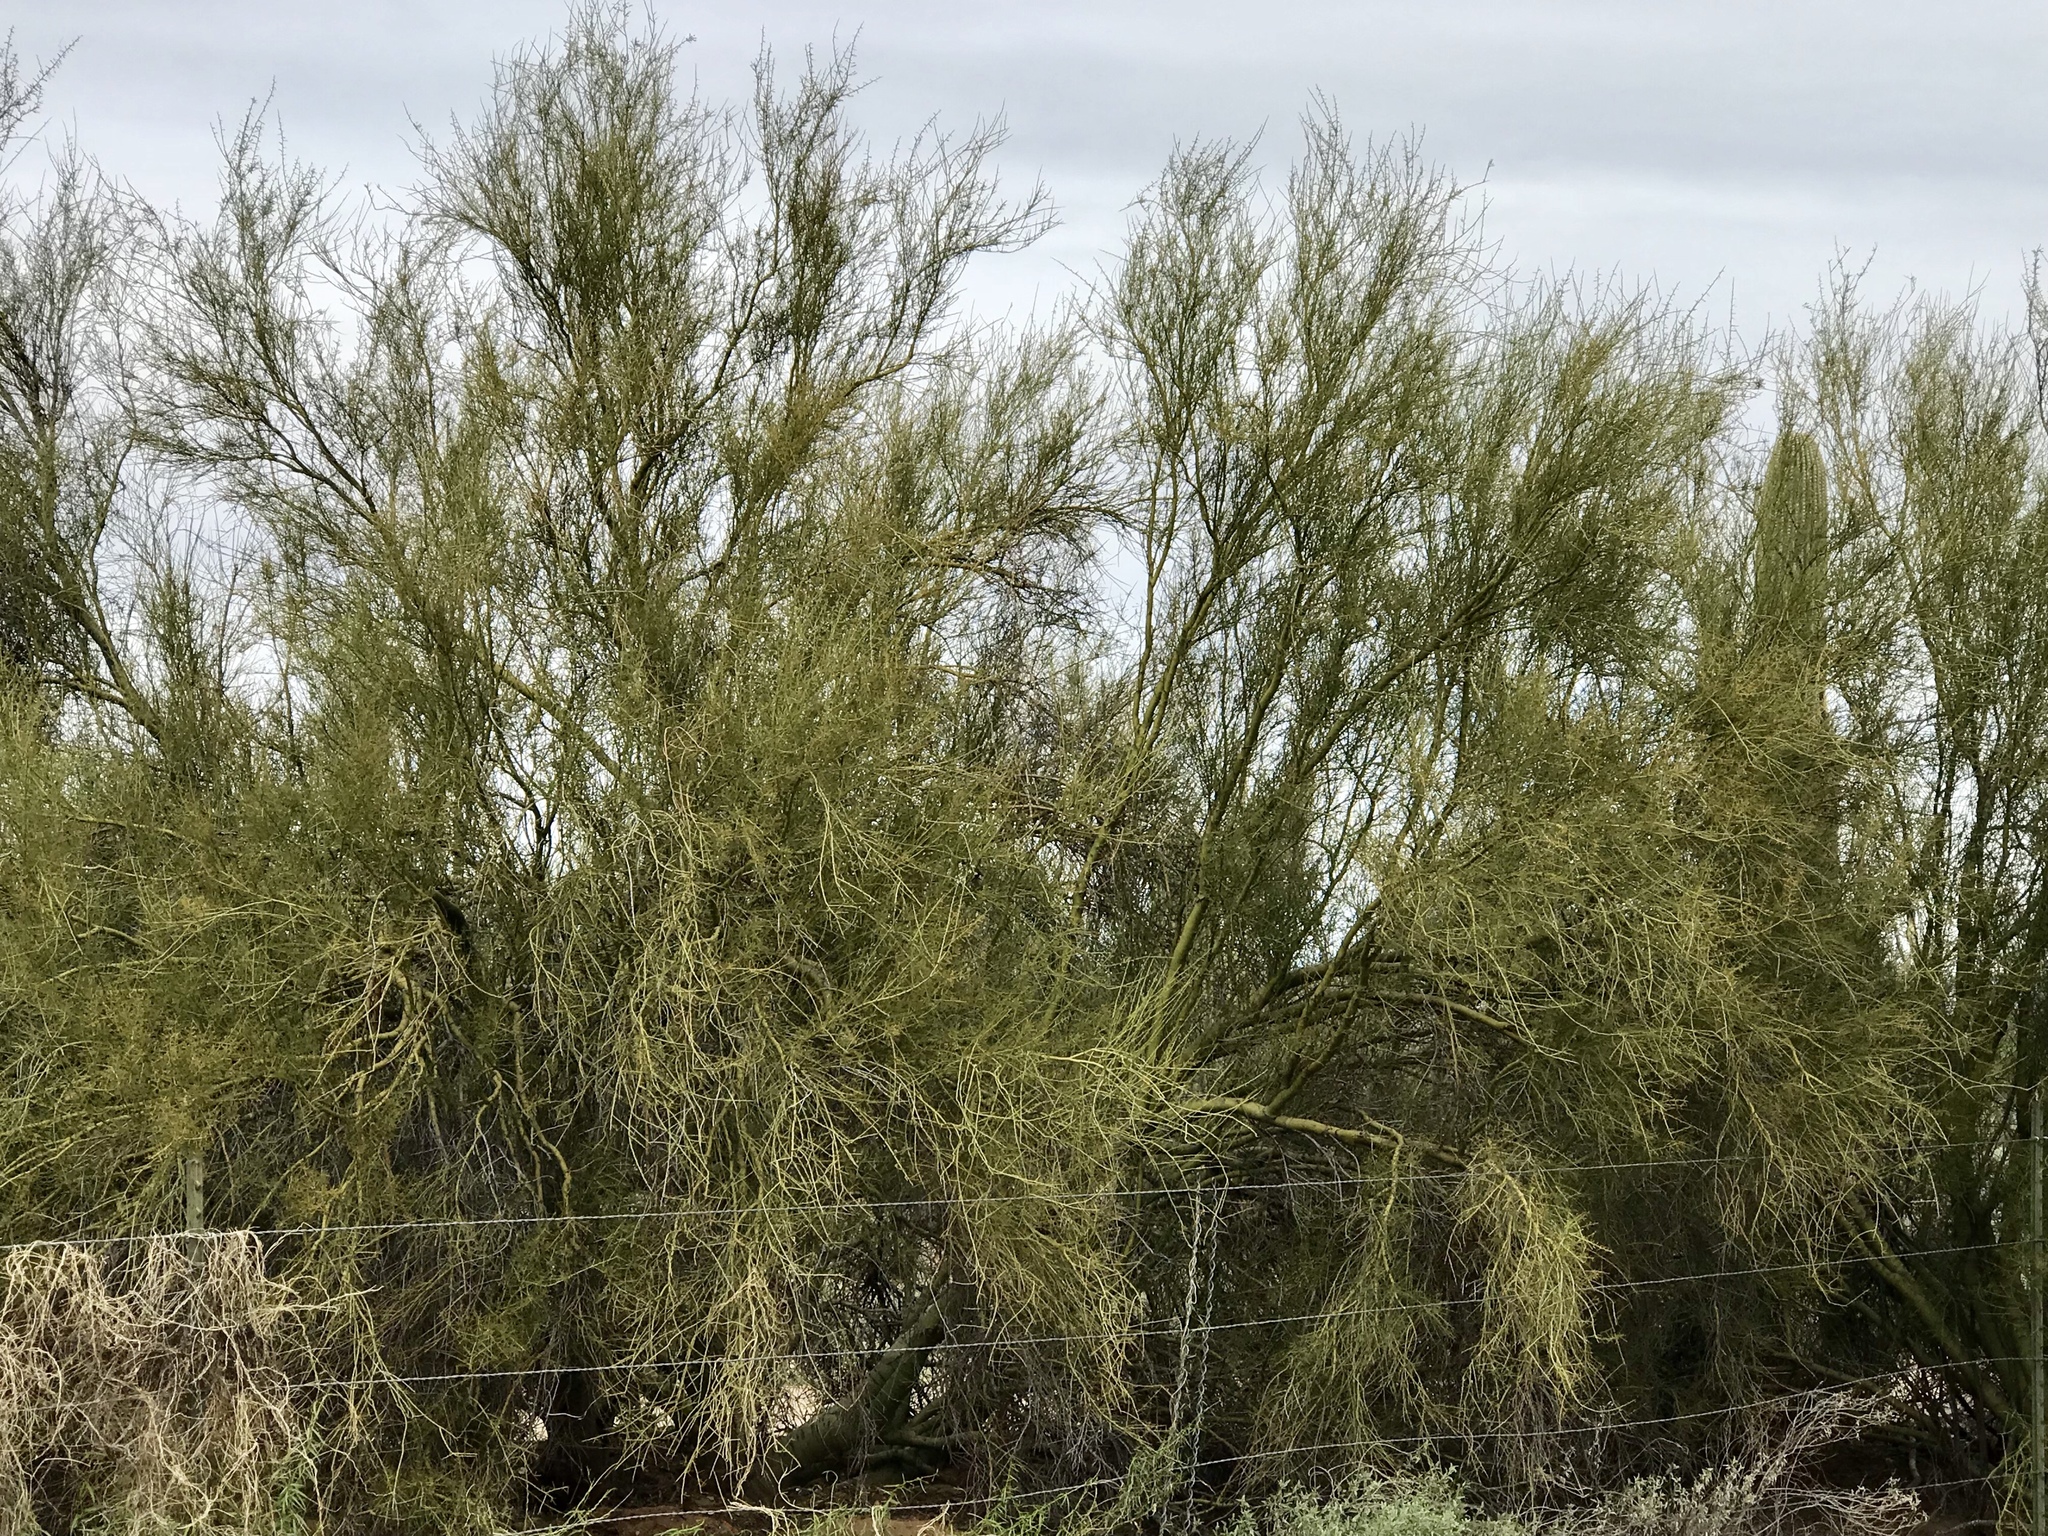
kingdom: Plantae
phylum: Tracheophyta
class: Magnoliopsida
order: Fabales
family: Fabaceae
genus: Parkinsonia
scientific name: Parkinsonia microphylla
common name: Yellow paloverde
